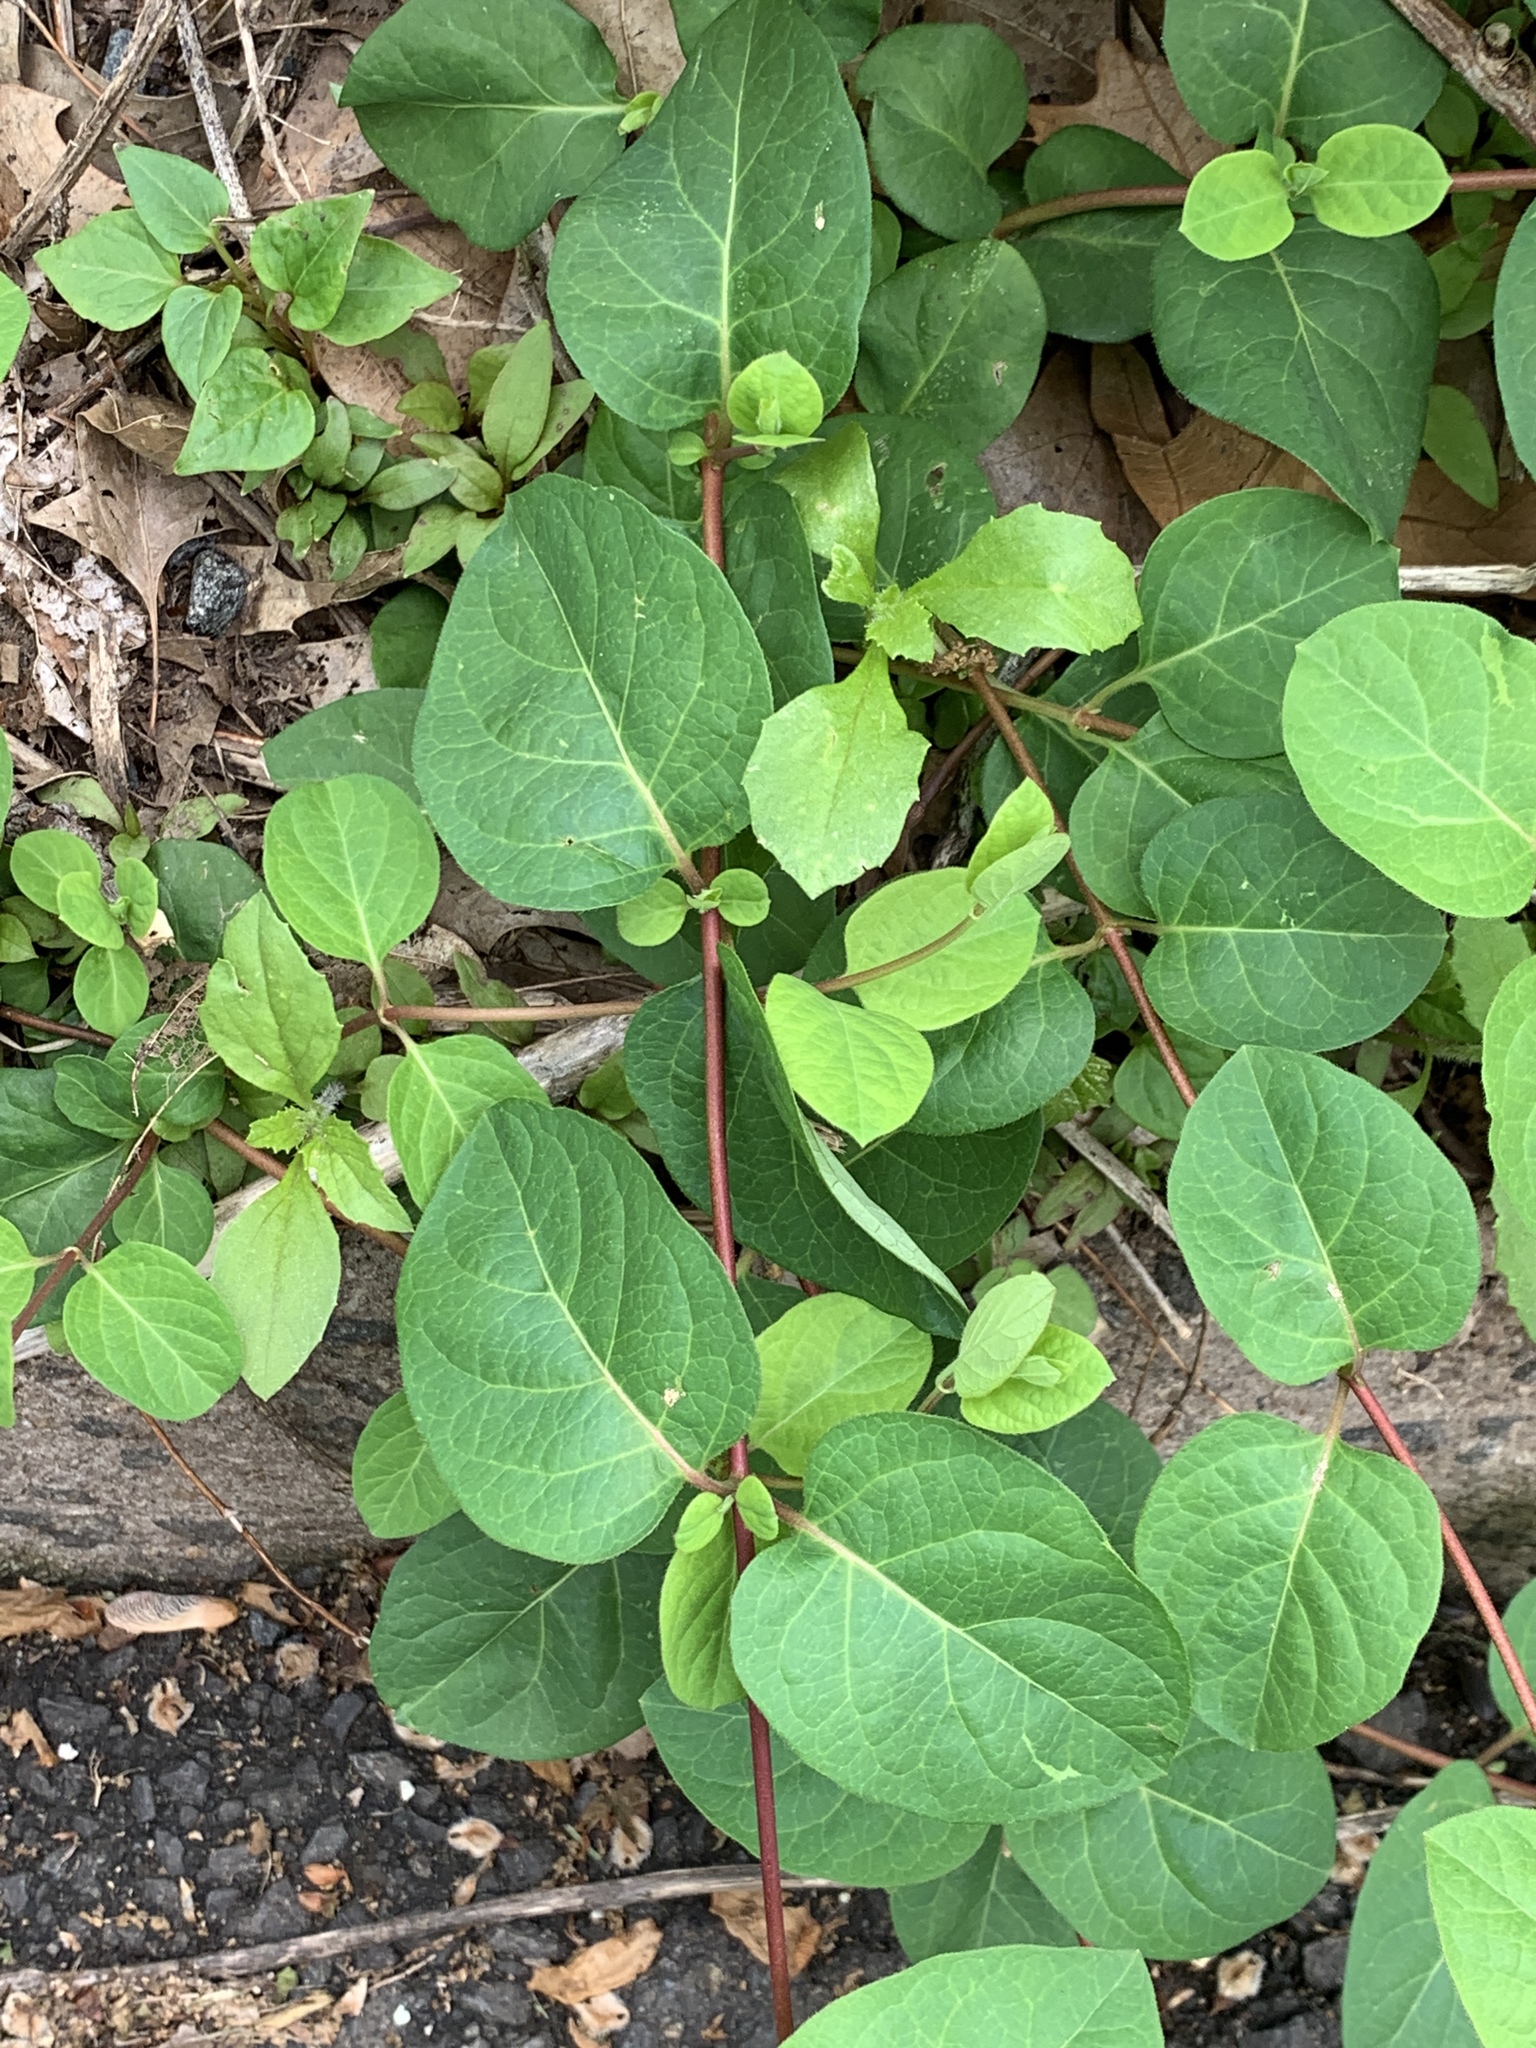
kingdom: Plantae
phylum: Tracheophyta
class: Magnoliopsida
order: Dipsacales
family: Caprifoliaceae
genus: Lonicera
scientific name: Lonicera japonica
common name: Japanese honeysuckle
